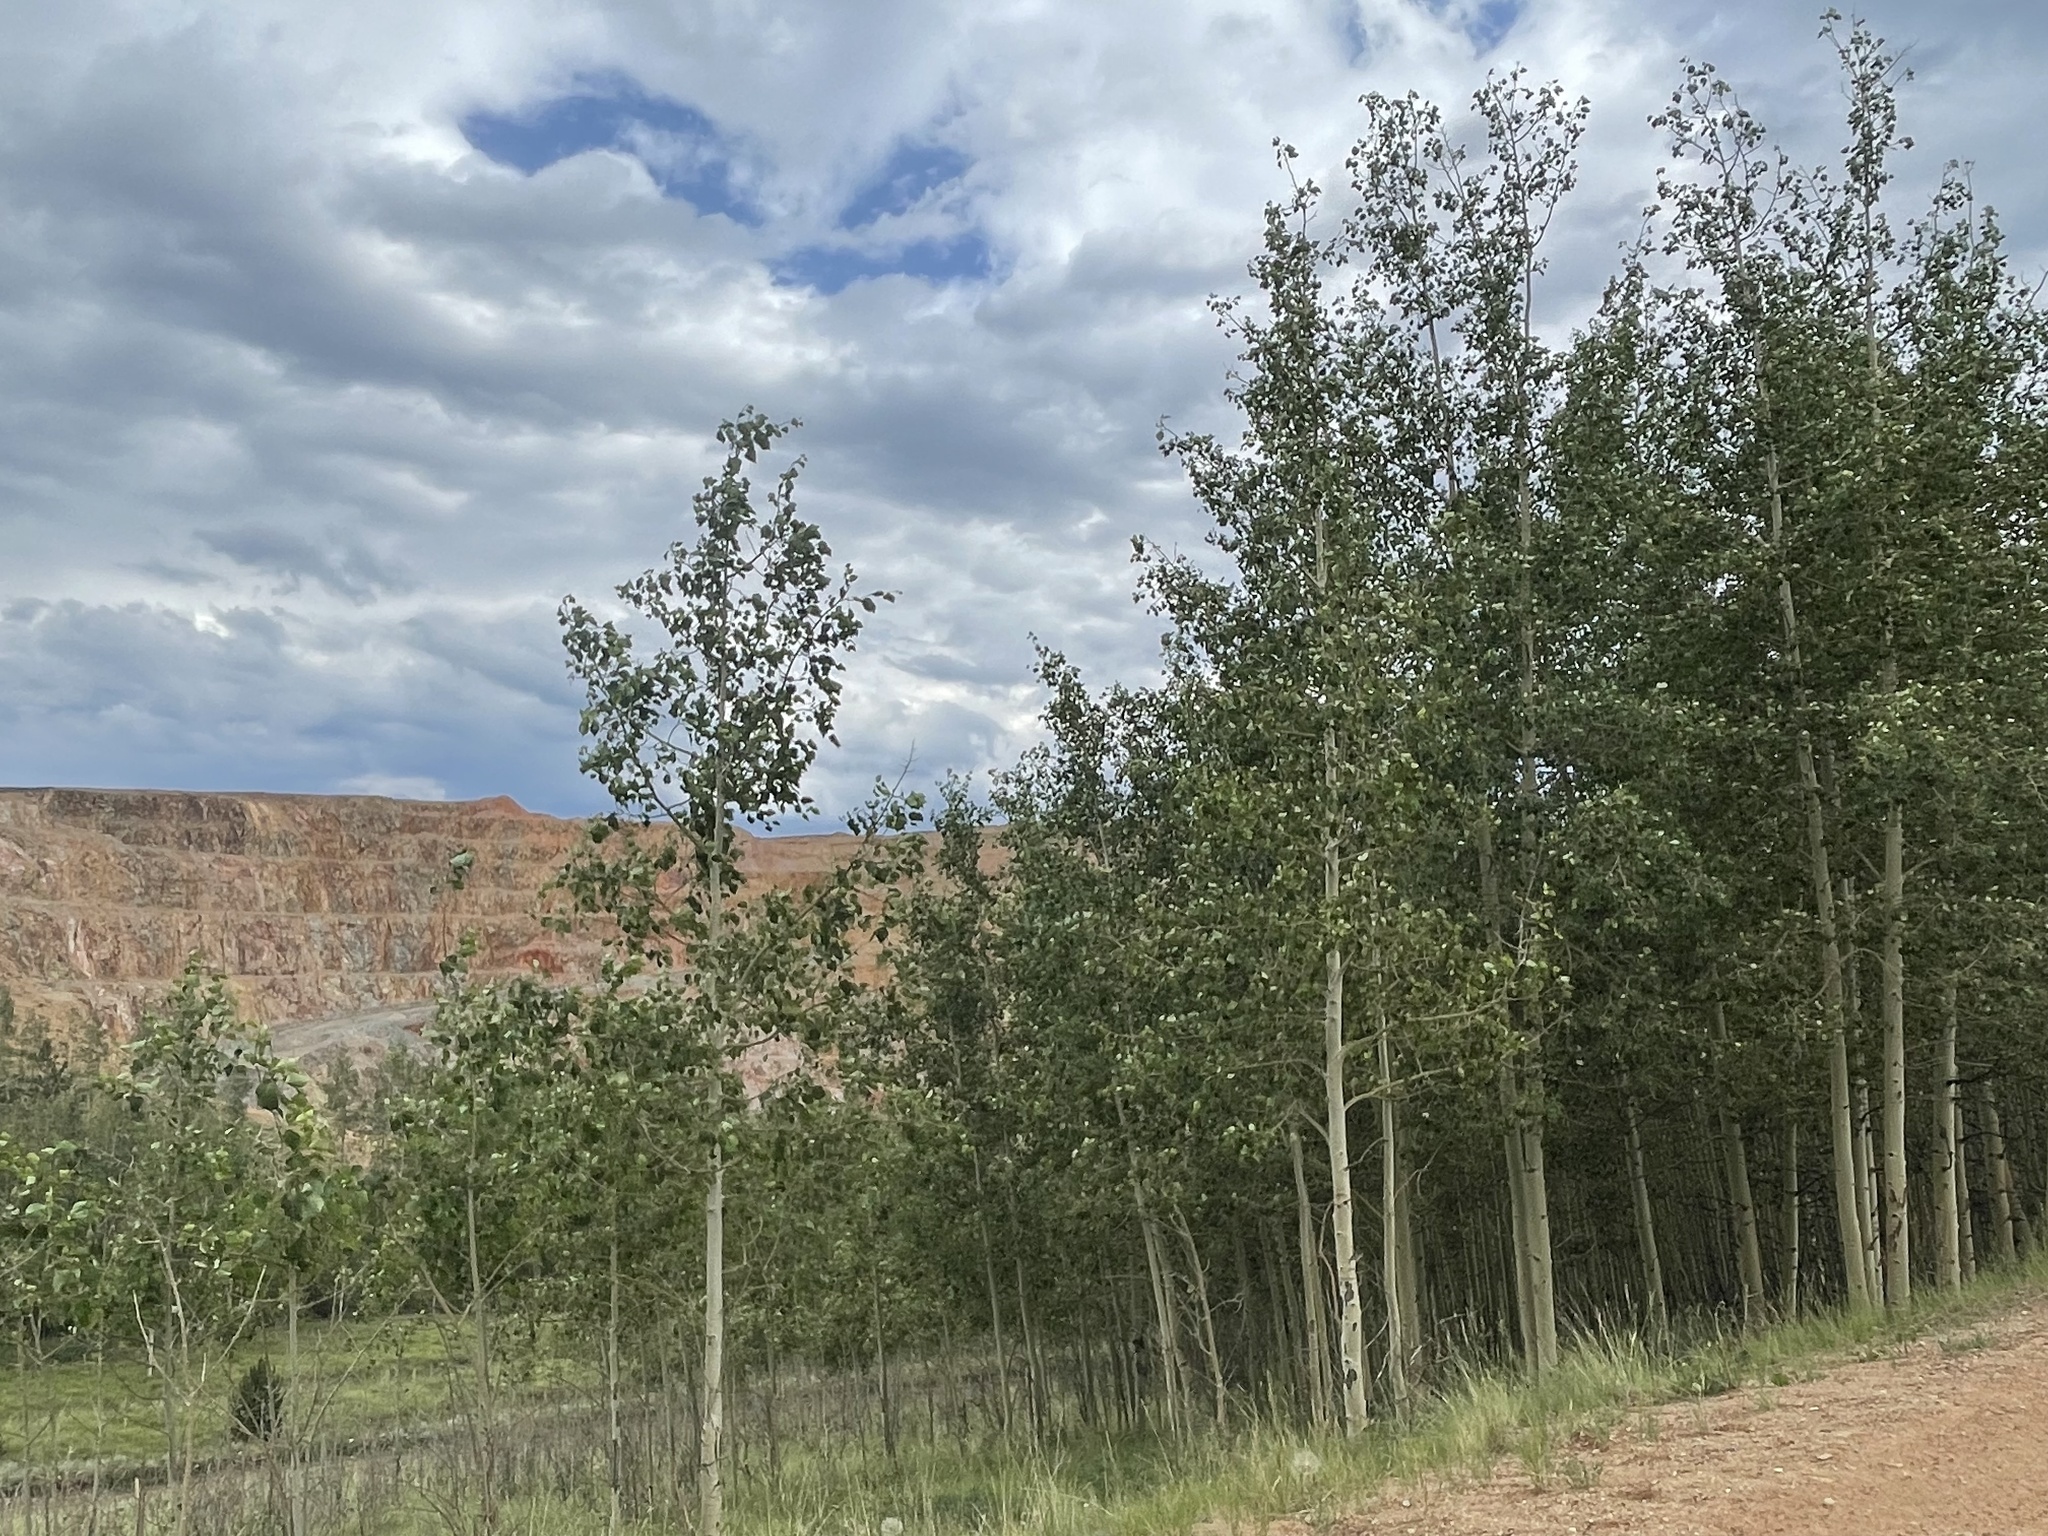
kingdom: Plantae
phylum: Tracheophyta
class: Magnoliopsida
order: Malpighiales
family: Salicaceae
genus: Populus
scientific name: Populus tremuloides
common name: Quaking aspen
